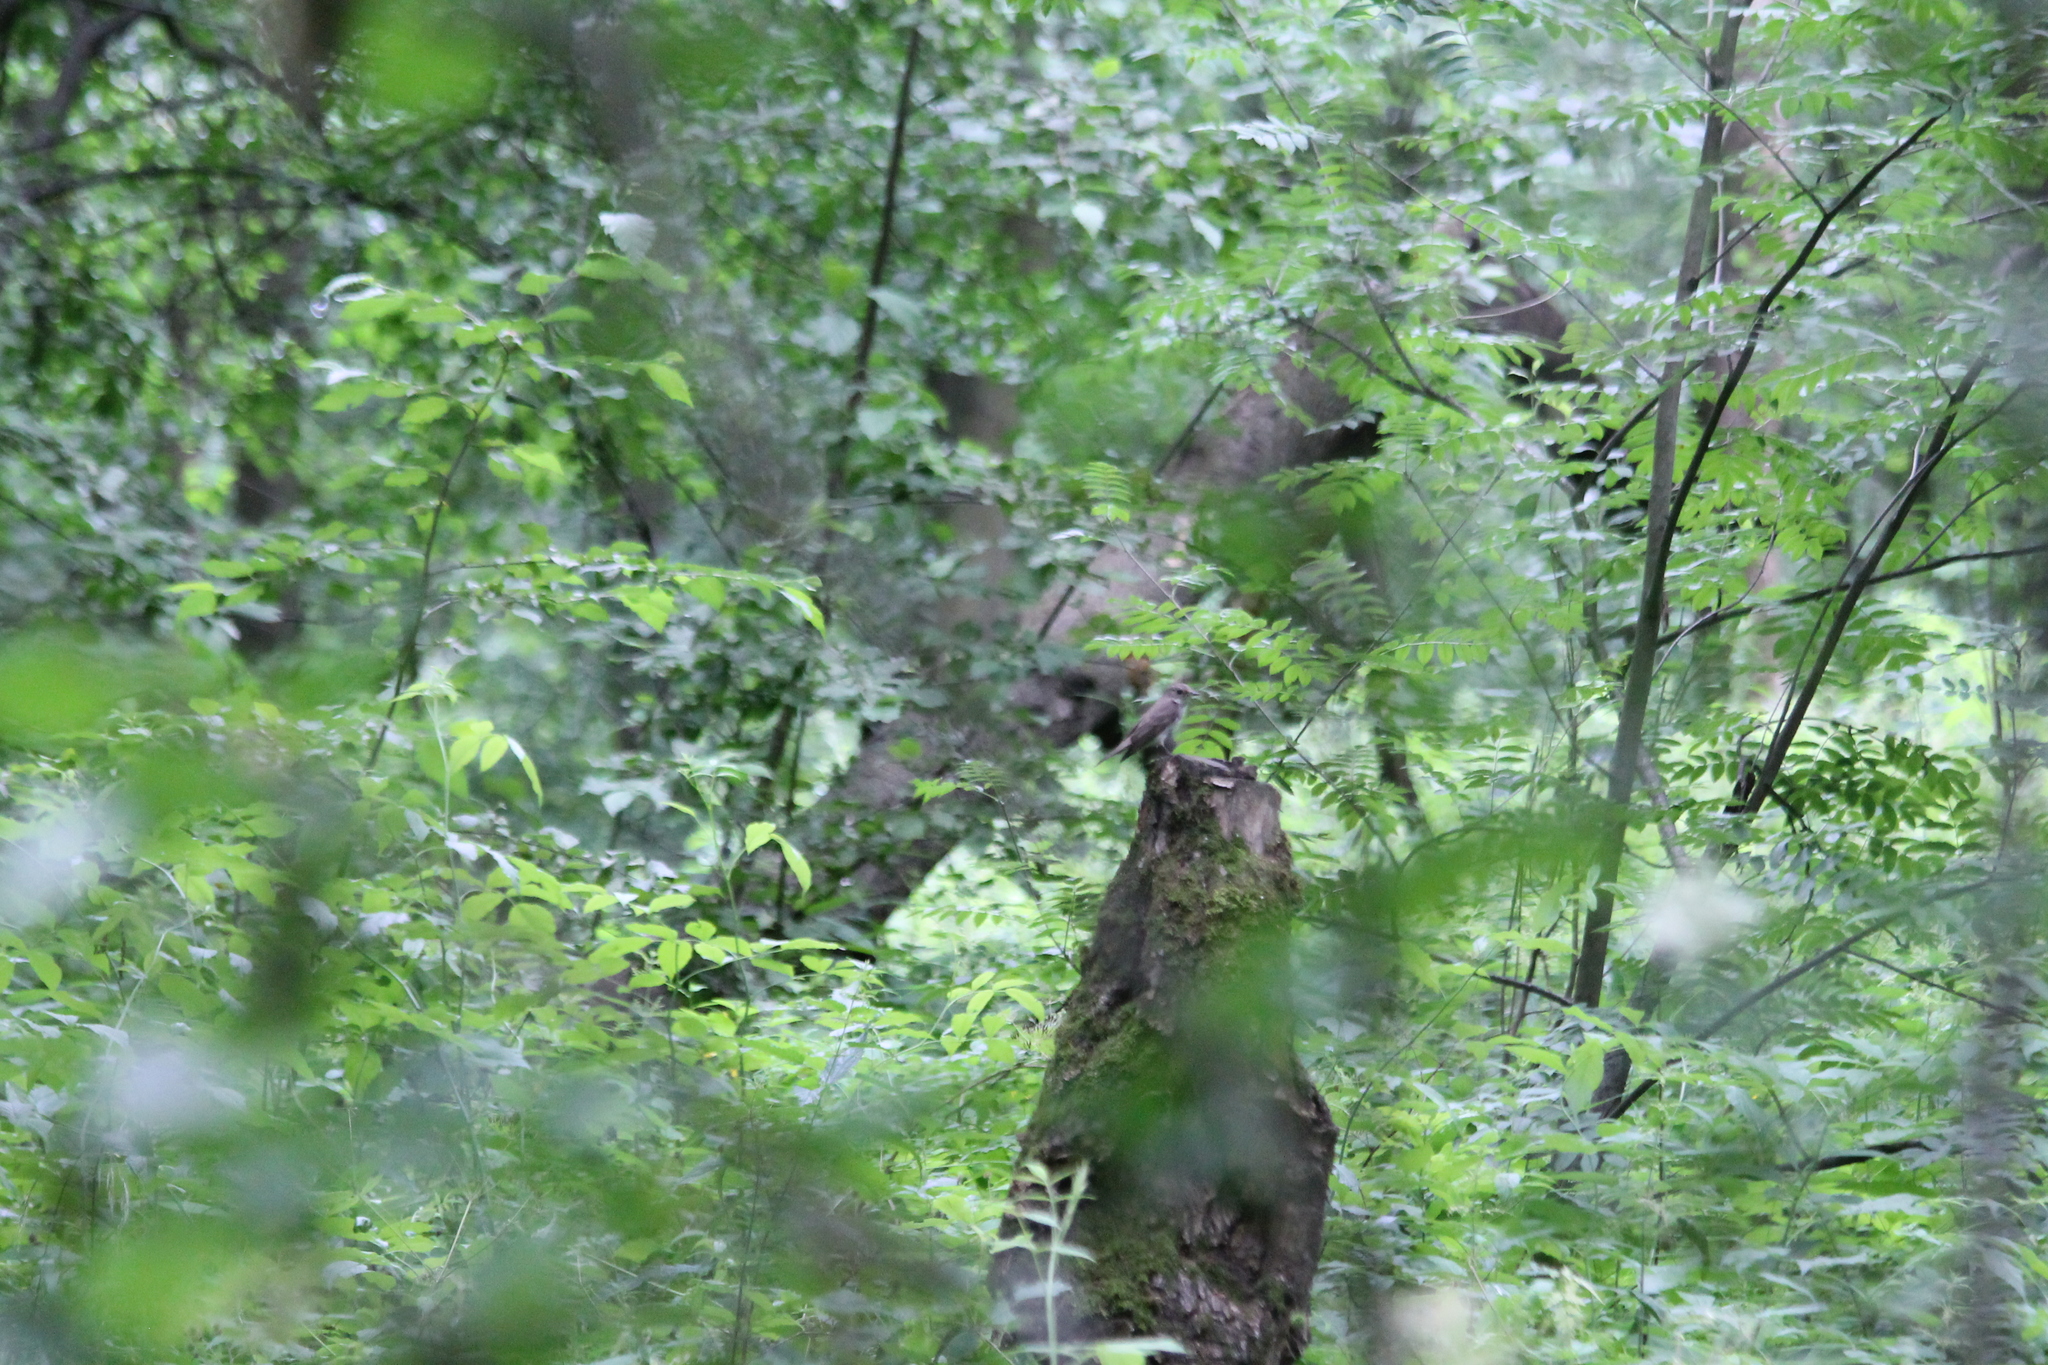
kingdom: Animalia
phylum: Chordata
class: Aves
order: Passeriformes
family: Muscicapidae
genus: Muscicapa
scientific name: Muscicapa striata
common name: Spotted flycatcher
